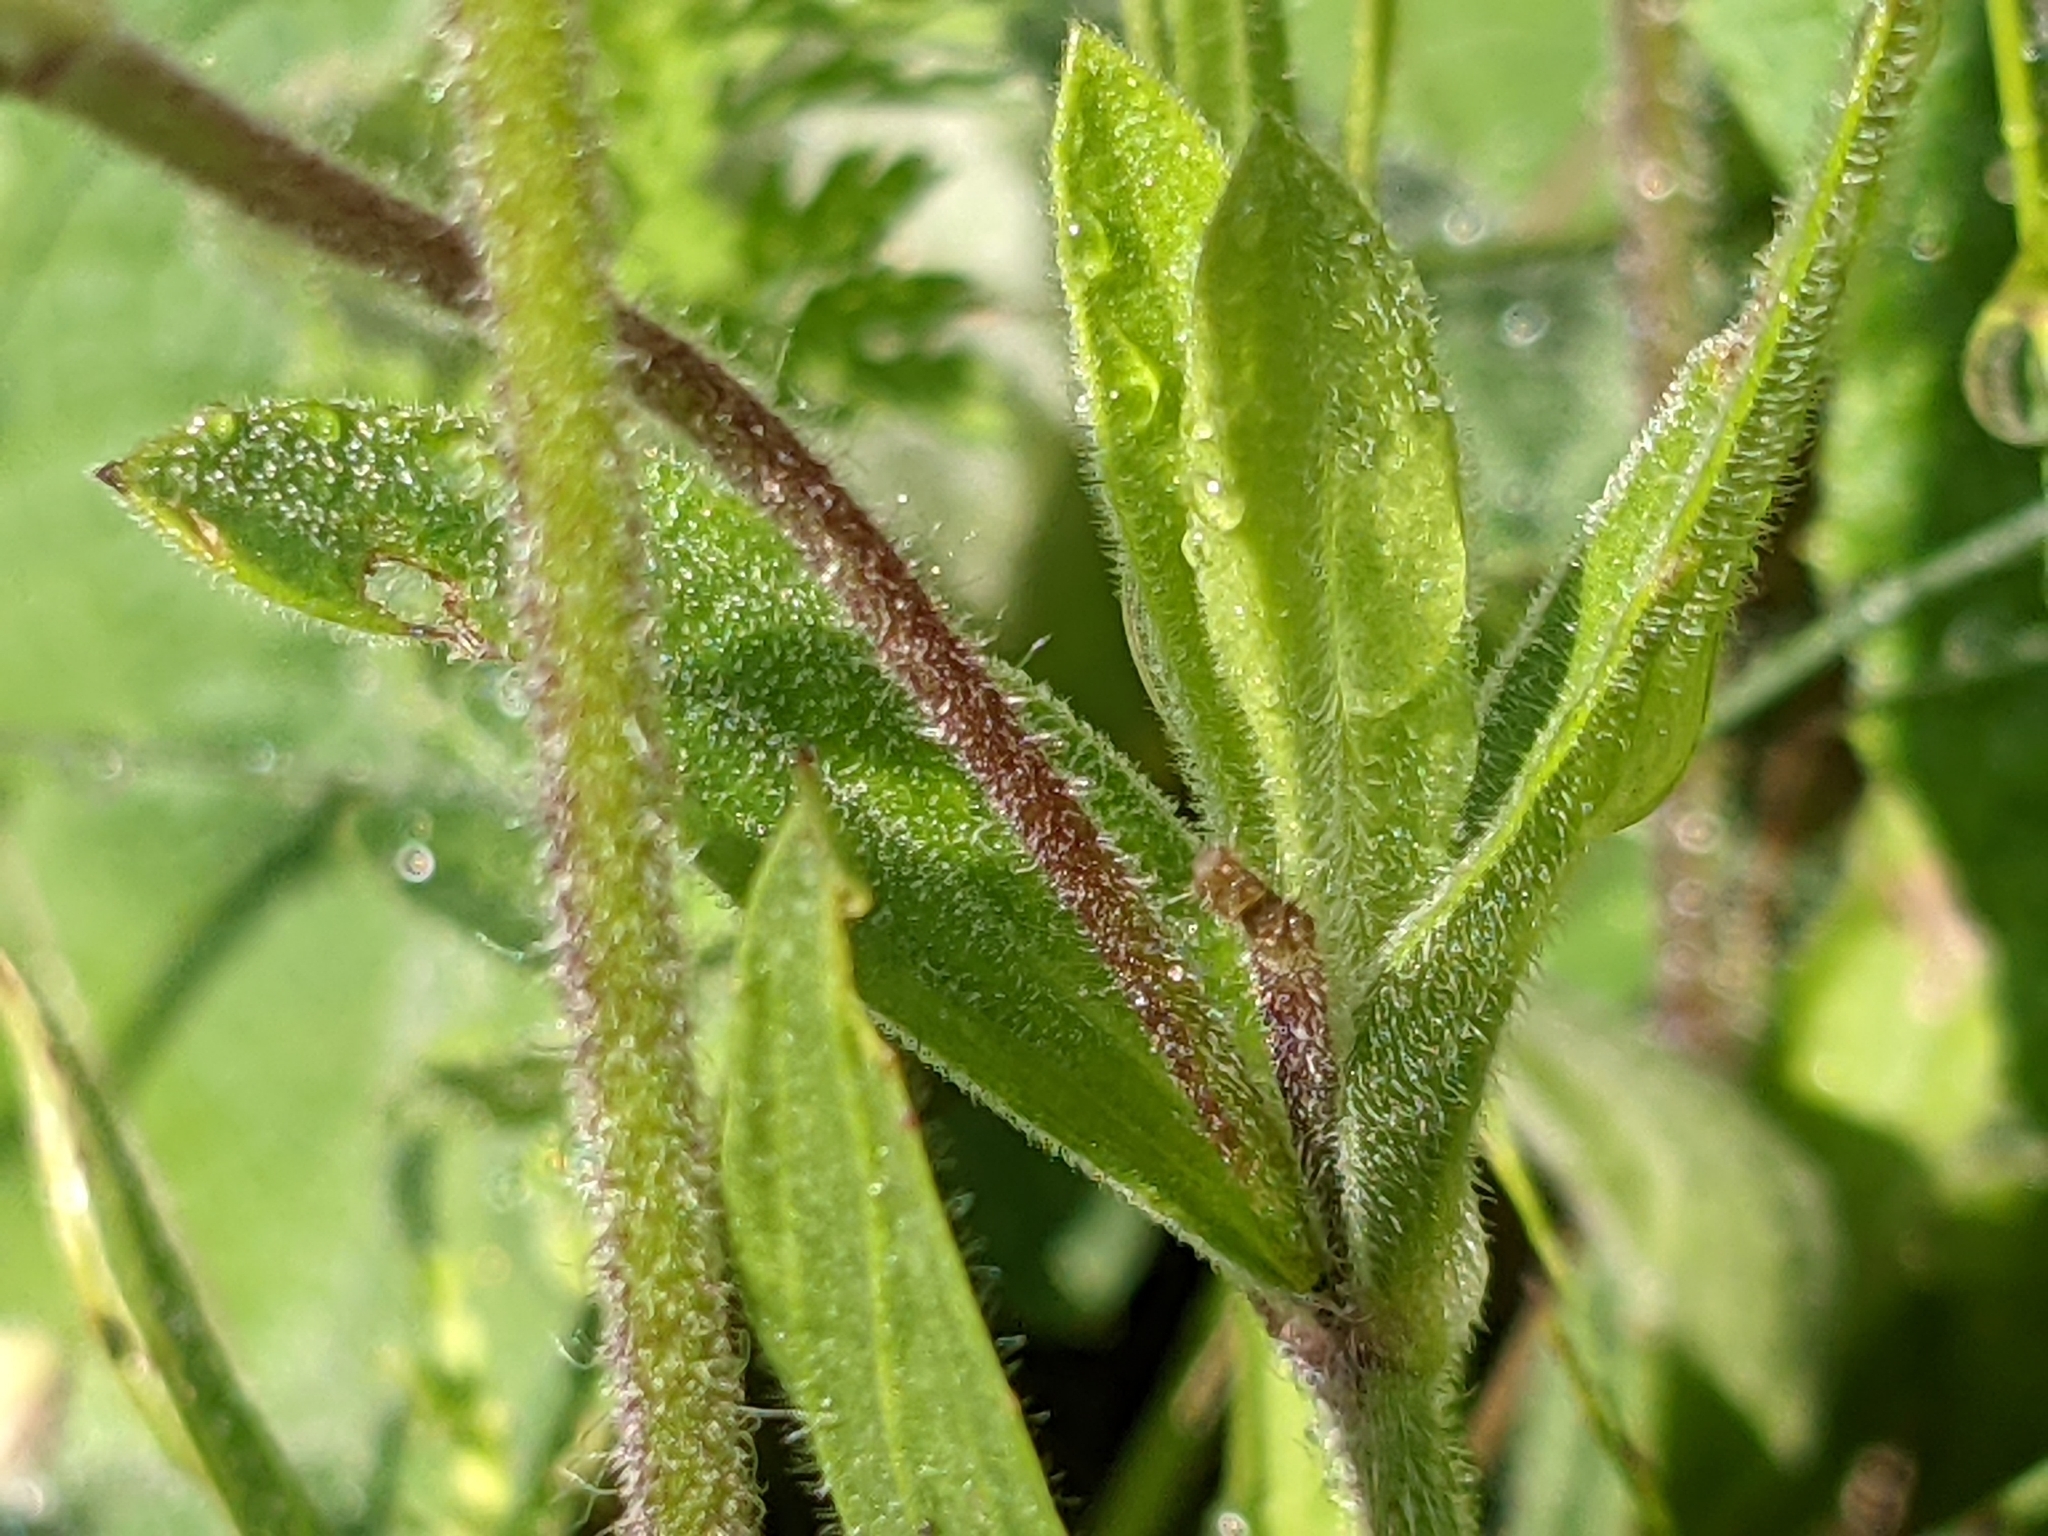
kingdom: Plantae
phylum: Tracheophyta
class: Magnoliopsida
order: Caryophyllales
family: Caryophyllaceae
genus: Silene
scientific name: Silene latifolia
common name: White campion
